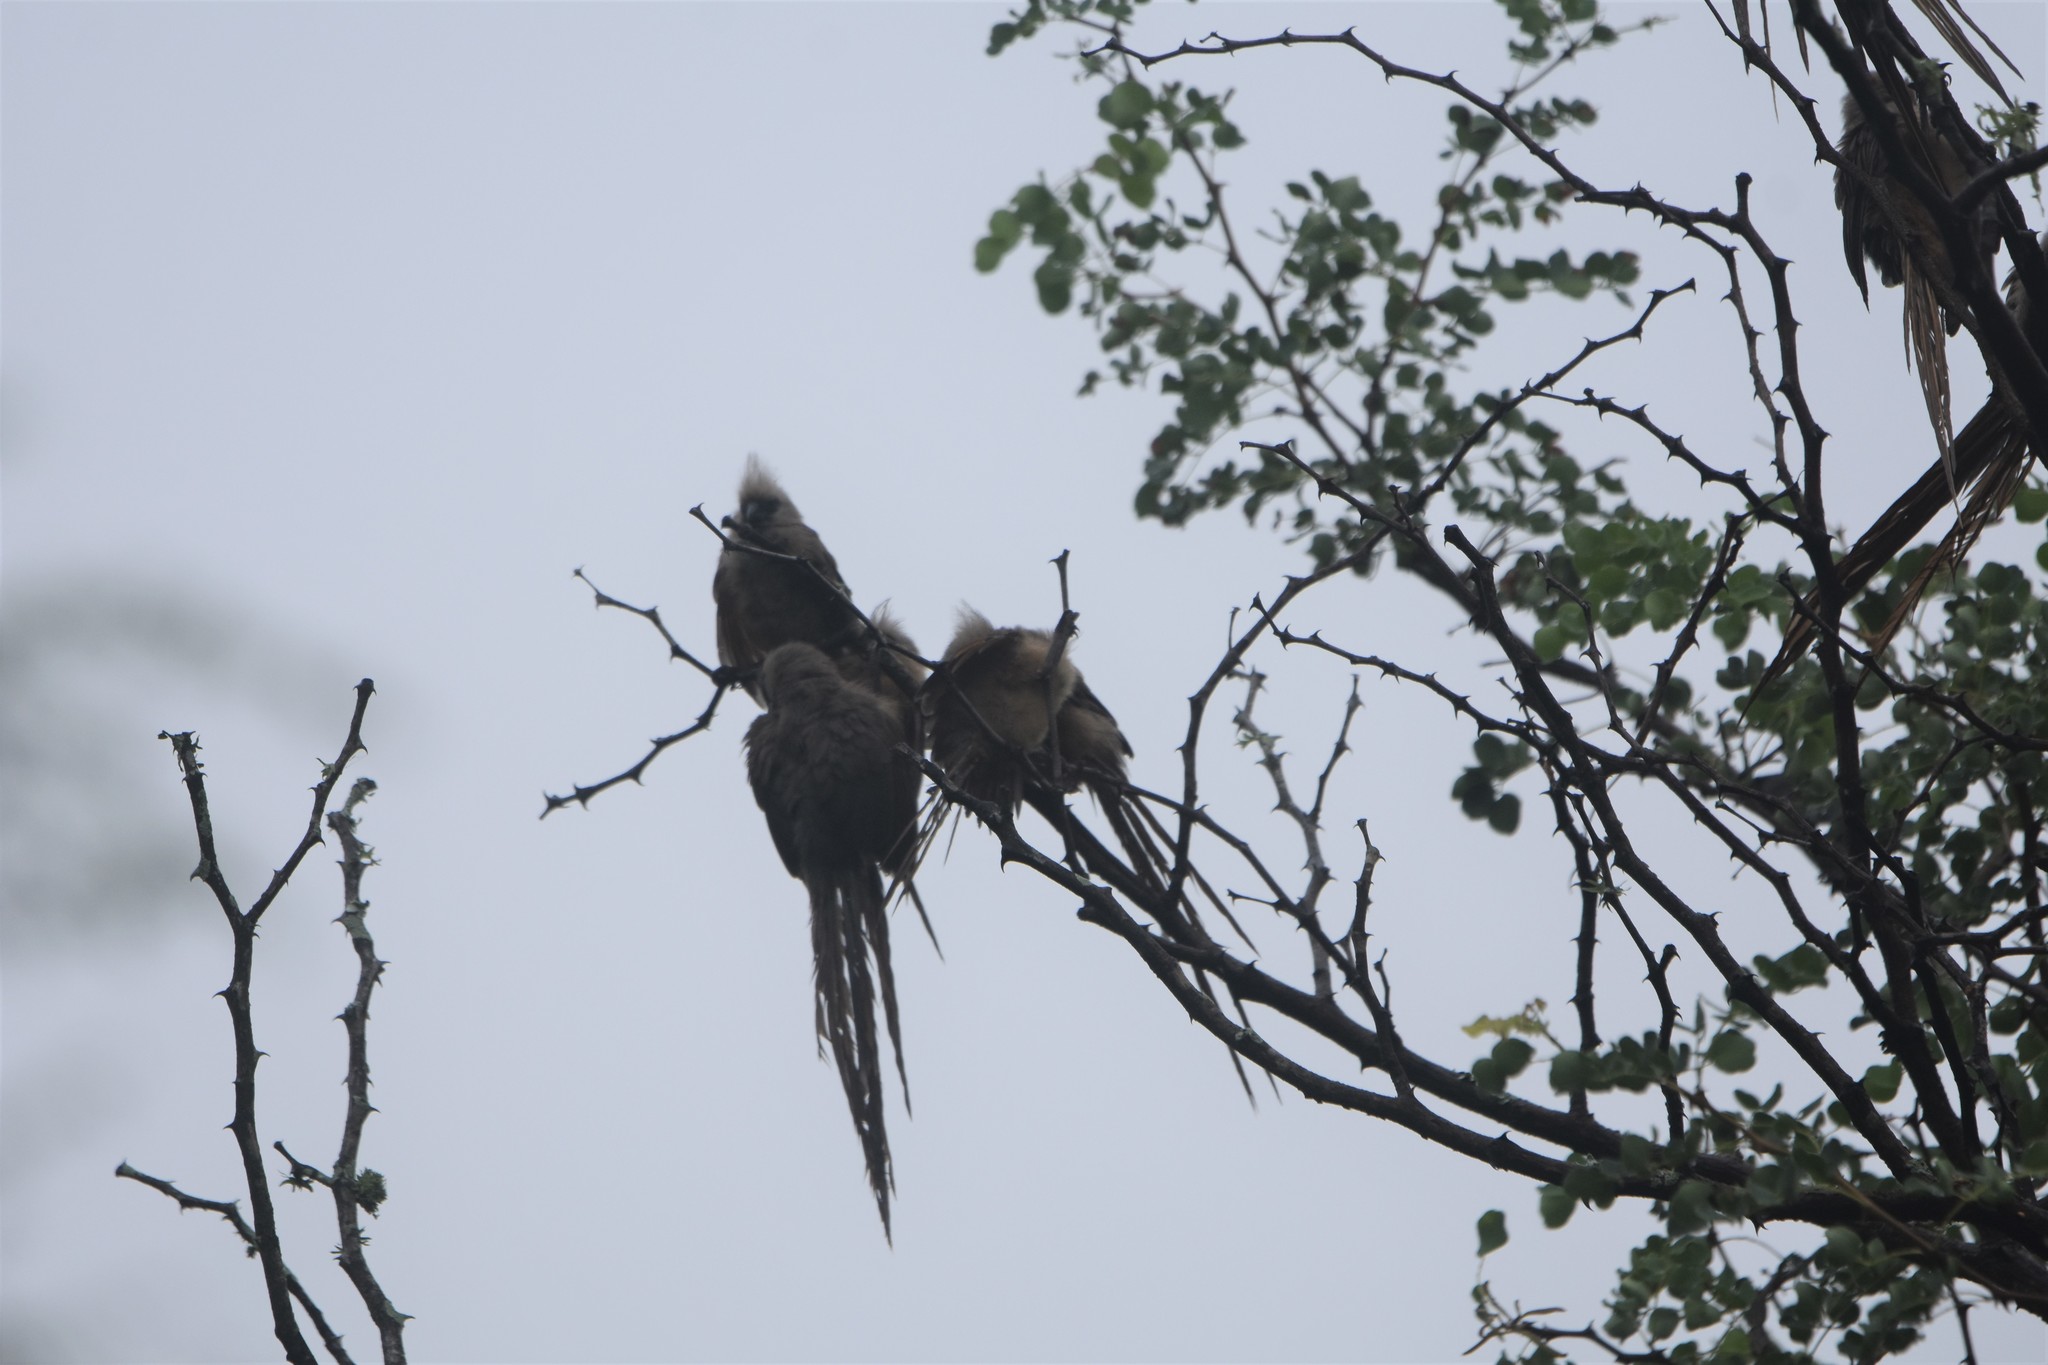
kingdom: Animalia
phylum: Chordata
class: Aves
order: Coliiformes
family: Coliidae
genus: Colius
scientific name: Colius striatus
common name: Speckled mousebird
